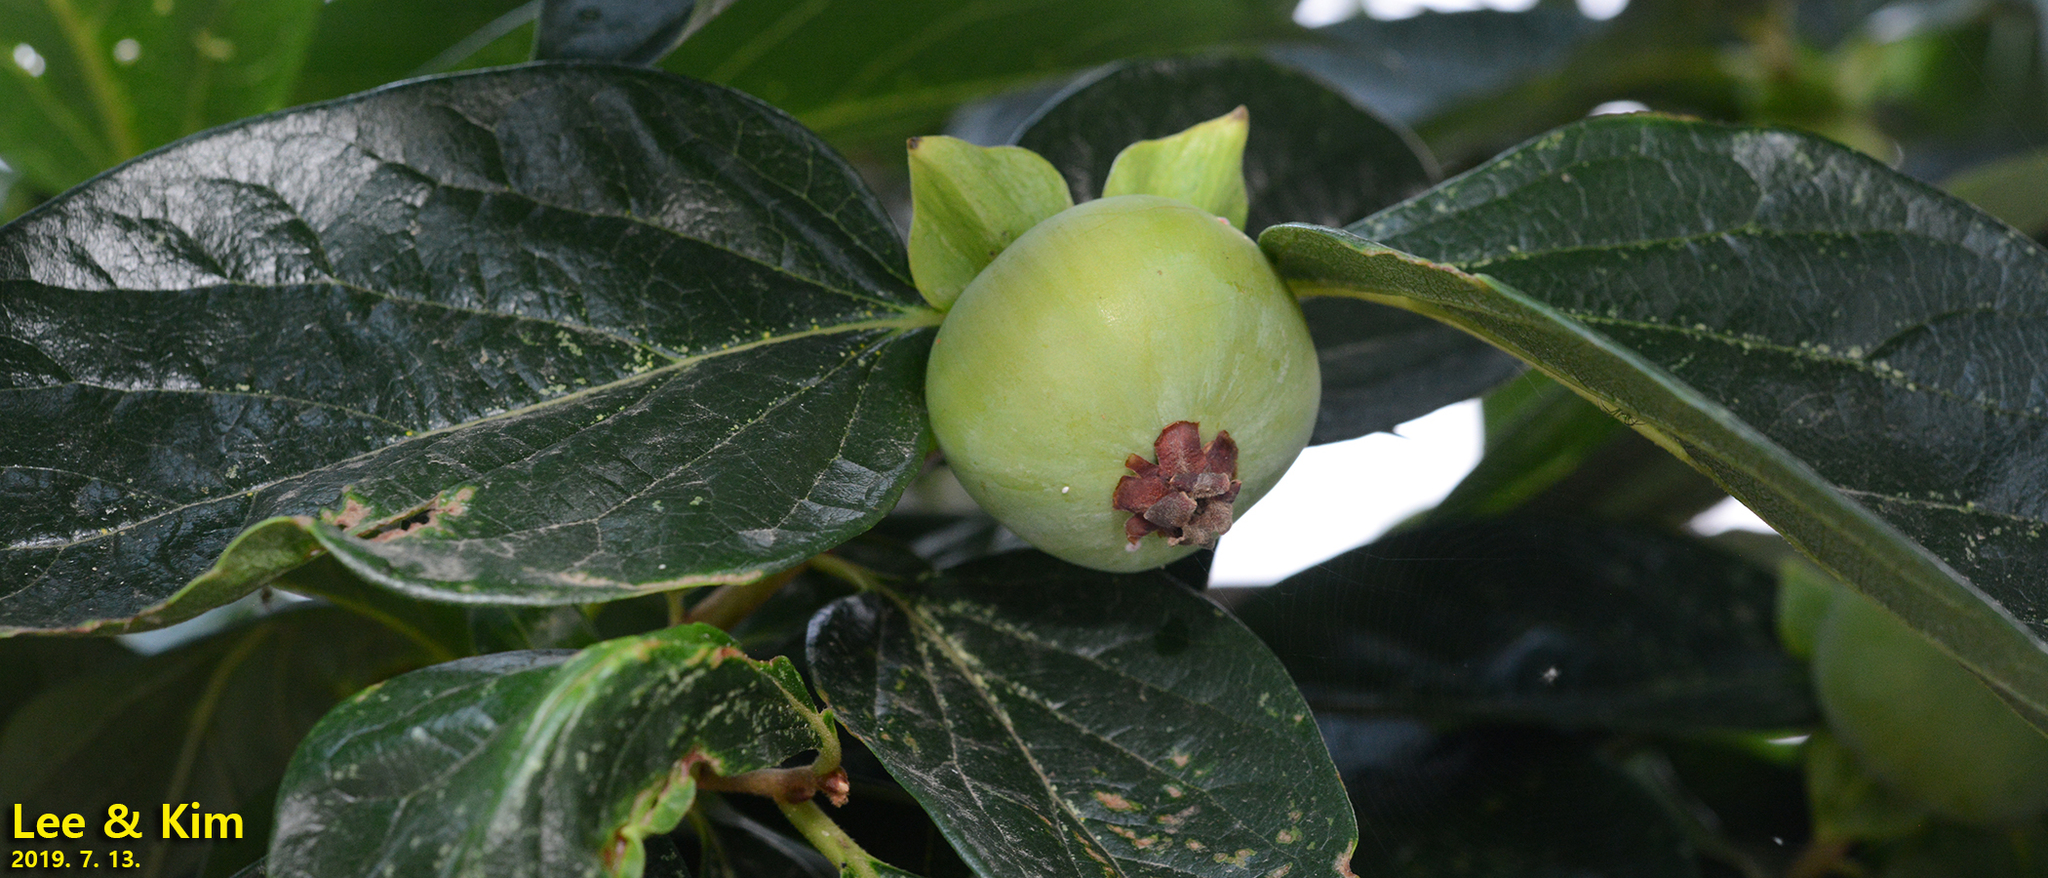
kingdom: Plantae
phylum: Tracheophyta
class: Magnoliopsida
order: Ericales
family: Ebenaceae
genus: Diospyros
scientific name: Diospyros kaki
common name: Persimmon
